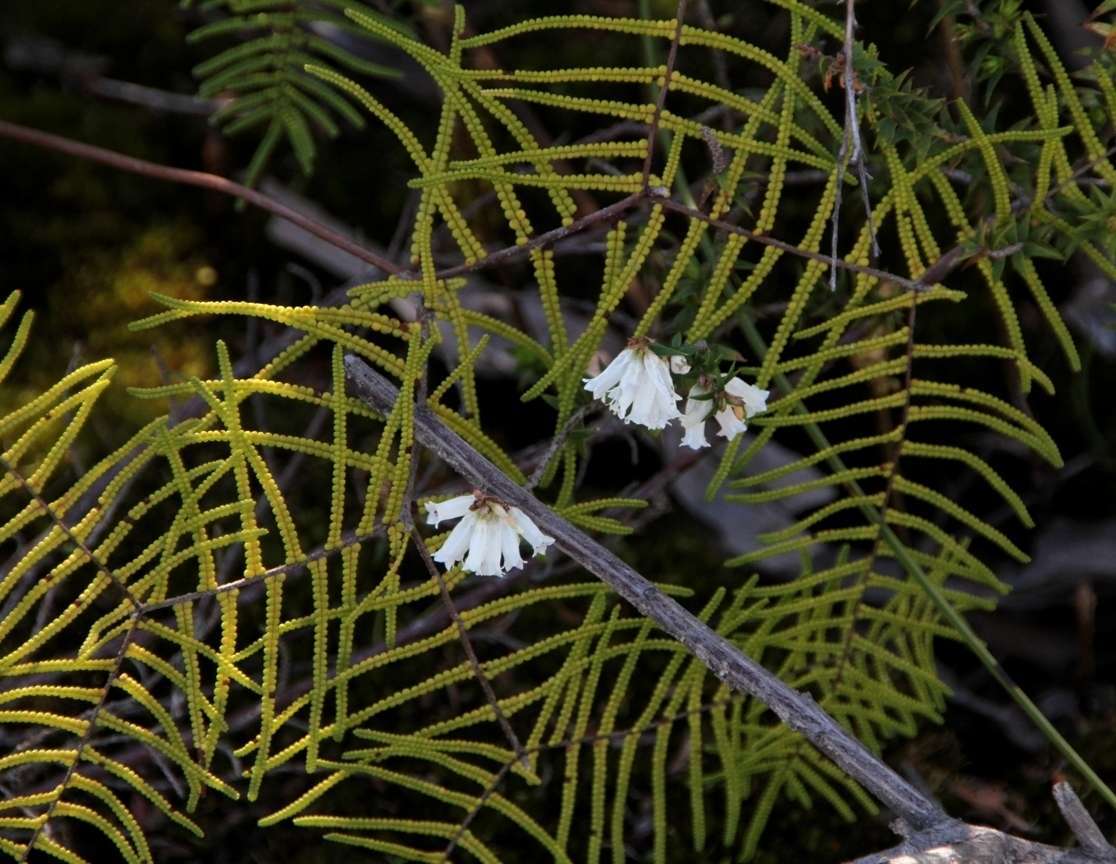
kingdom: Plantae
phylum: Tracheophyta
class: Magnoliopsida
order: Ericales
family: Ericaceae
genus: Epacris
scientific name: Epacris impressa
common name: Common-heath
